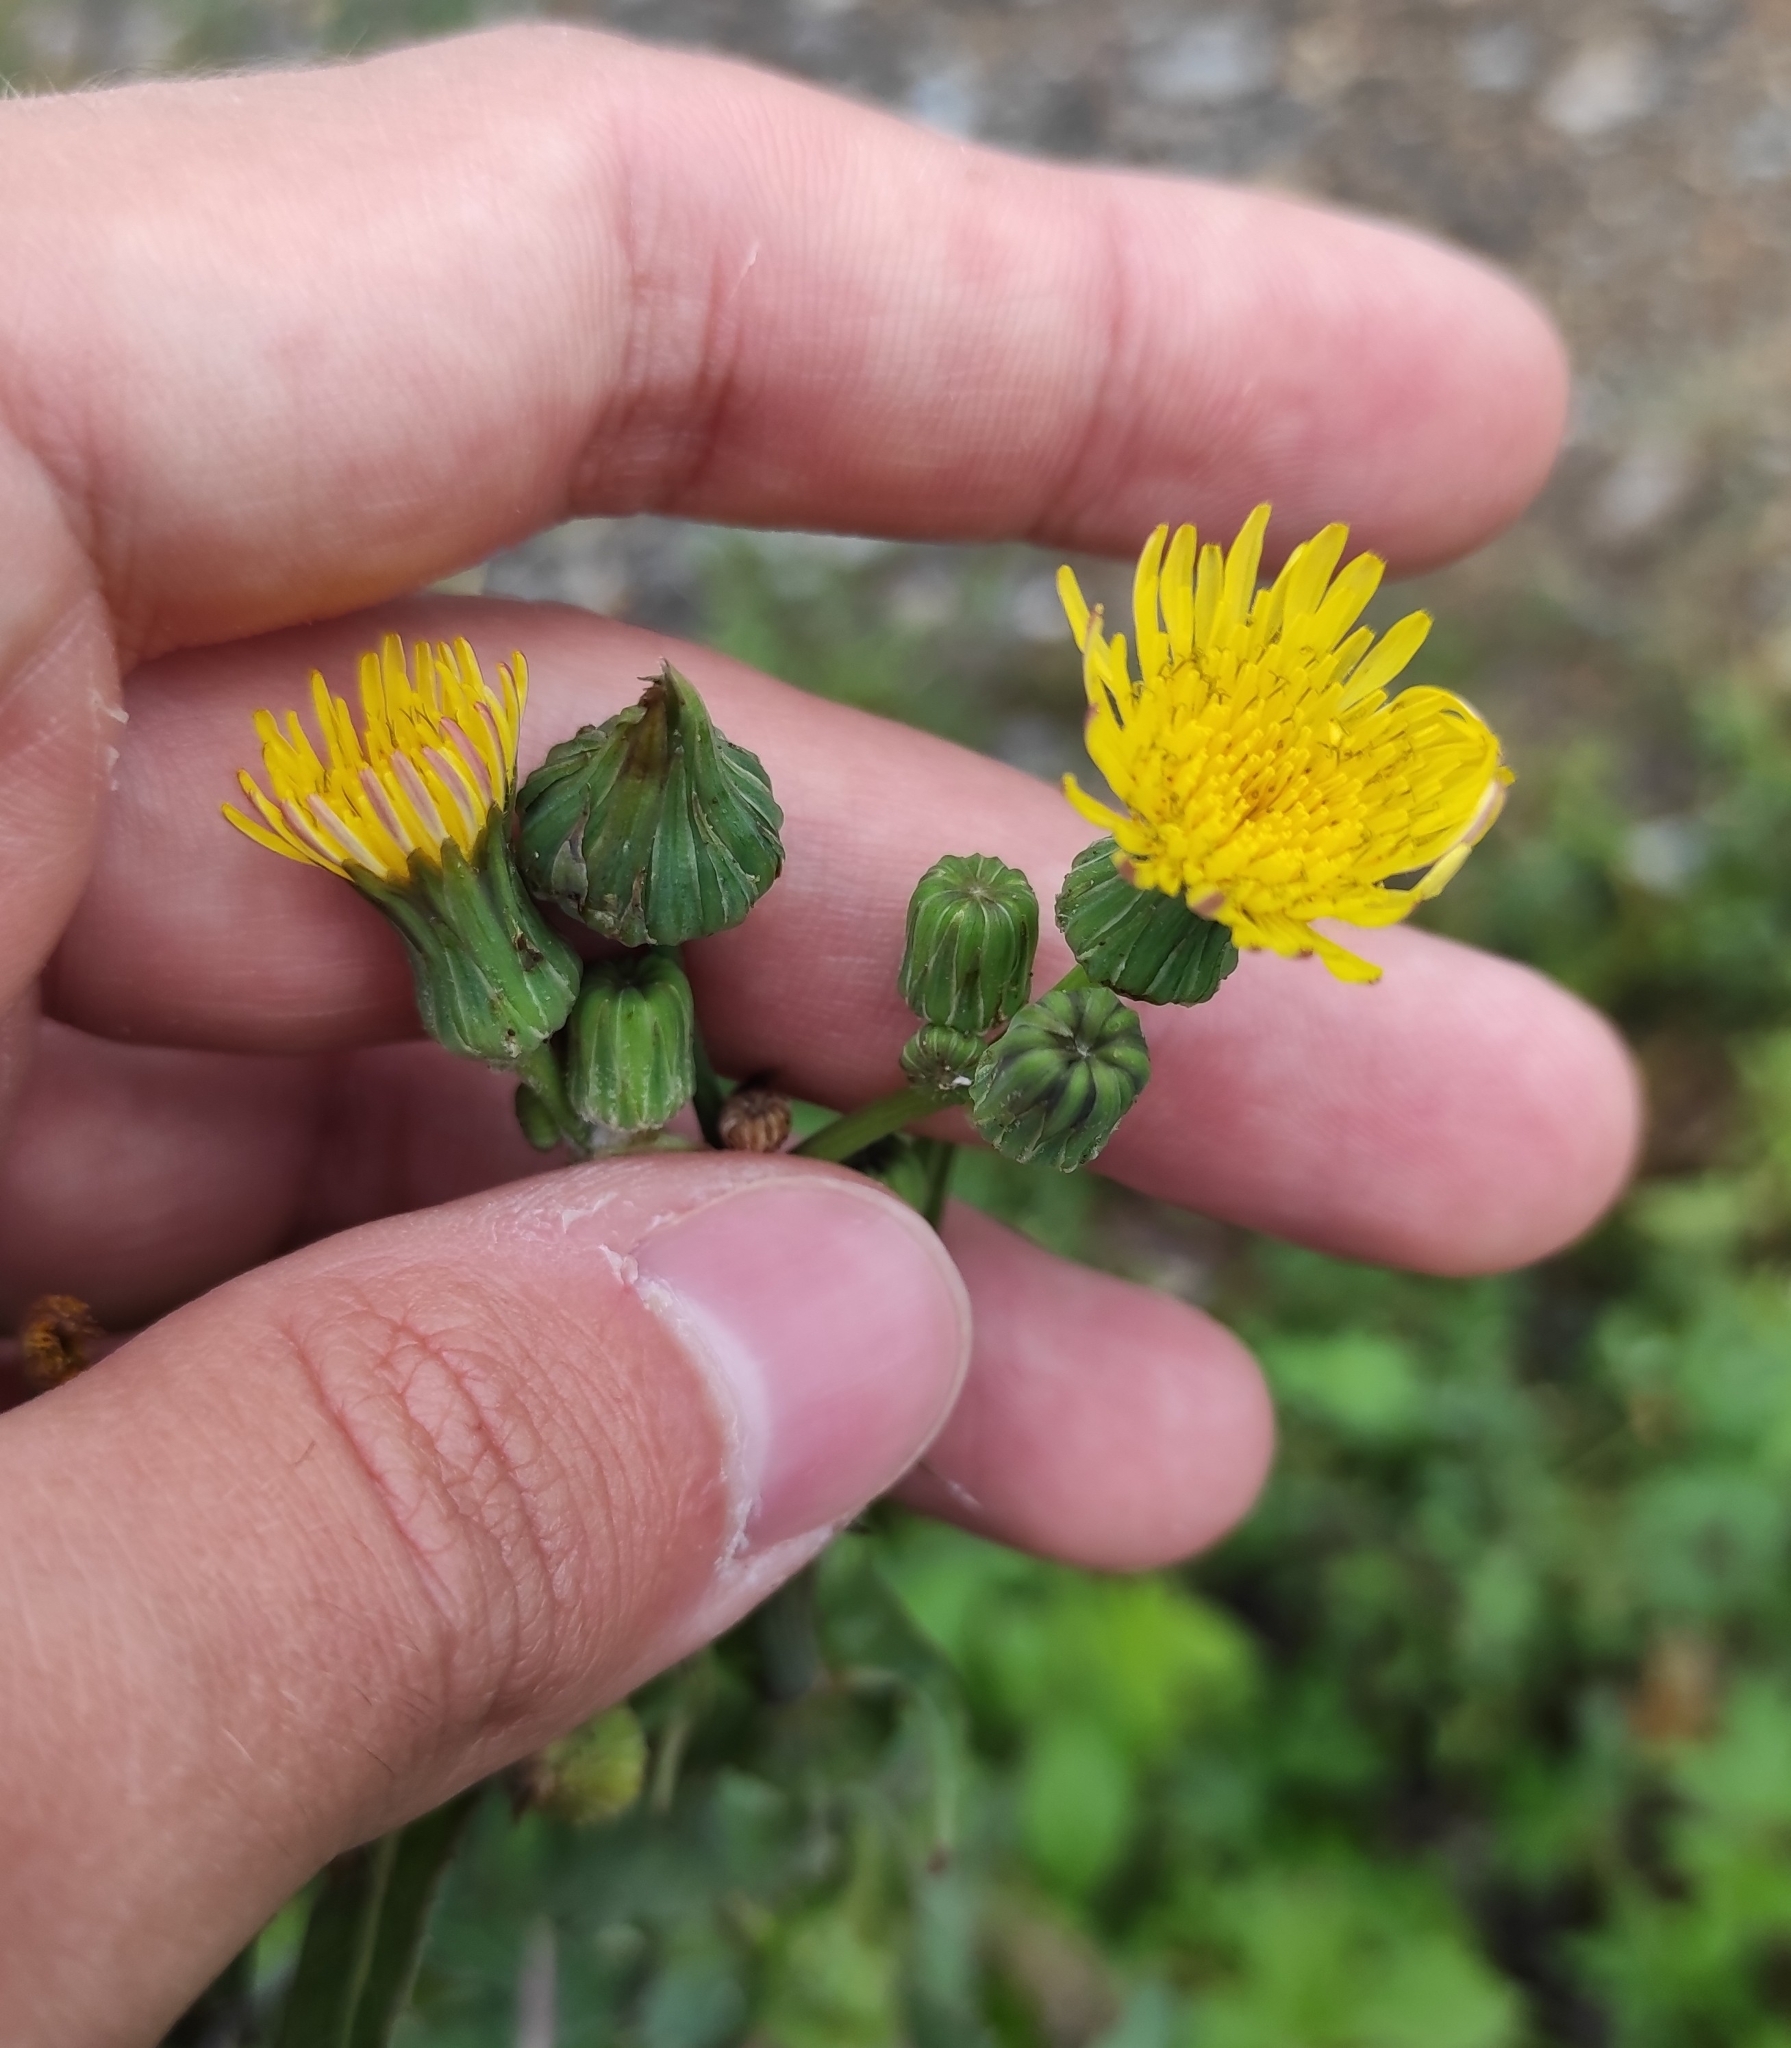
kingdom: Plantae
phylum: Tracheophyta
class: Magnoliopsida
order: Asterales
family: Asteraceae
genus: Sonchus
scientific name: Sonchus oleraceus
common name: Common sowthistle
